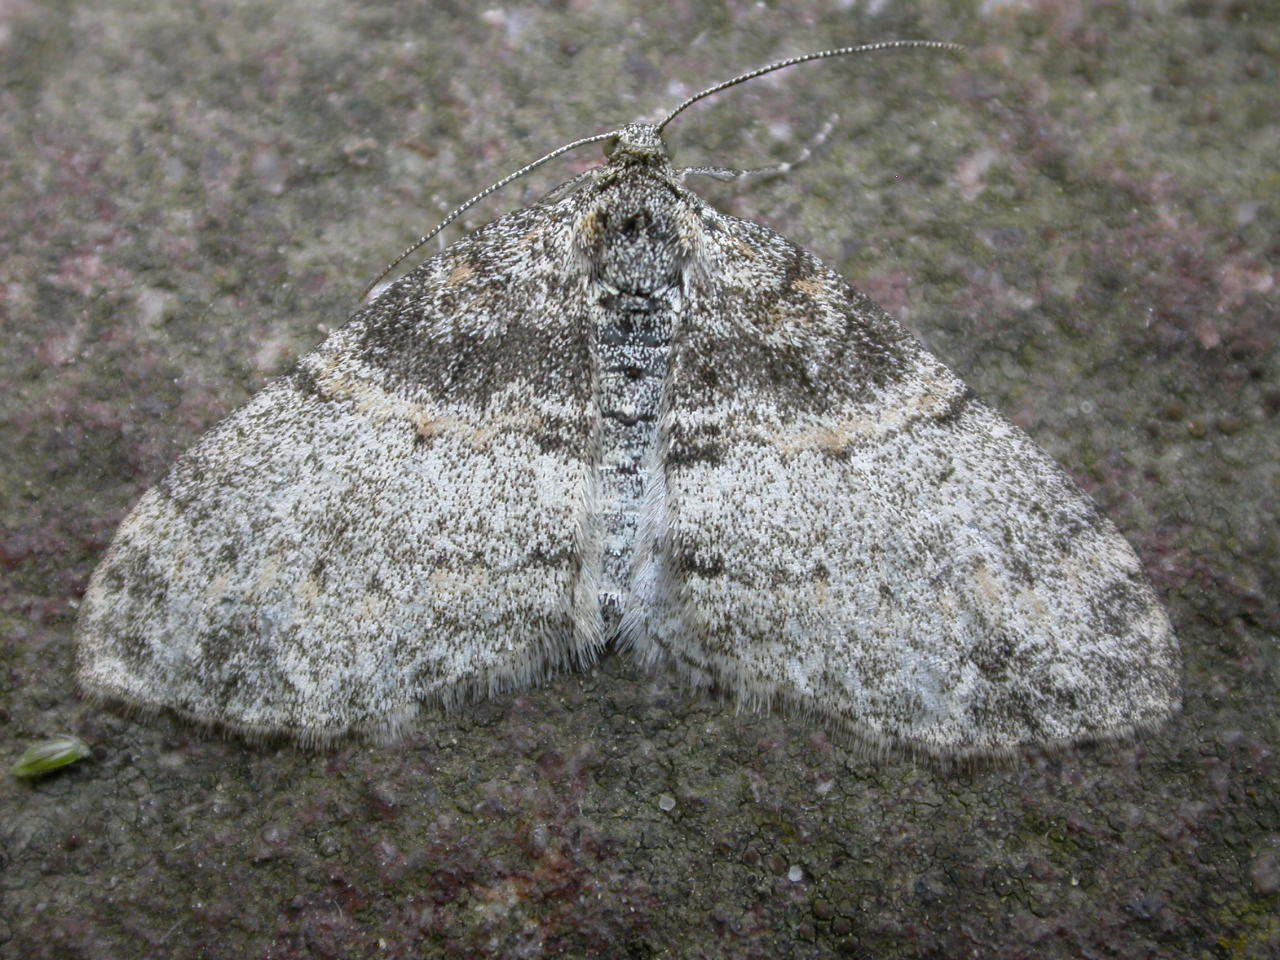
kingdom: Animalia
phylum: Arthropoda
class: Insecta
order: Lepidoptera
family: Geometridae
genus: Lobophora
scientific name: Lobophora halterata
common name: Seraphim
